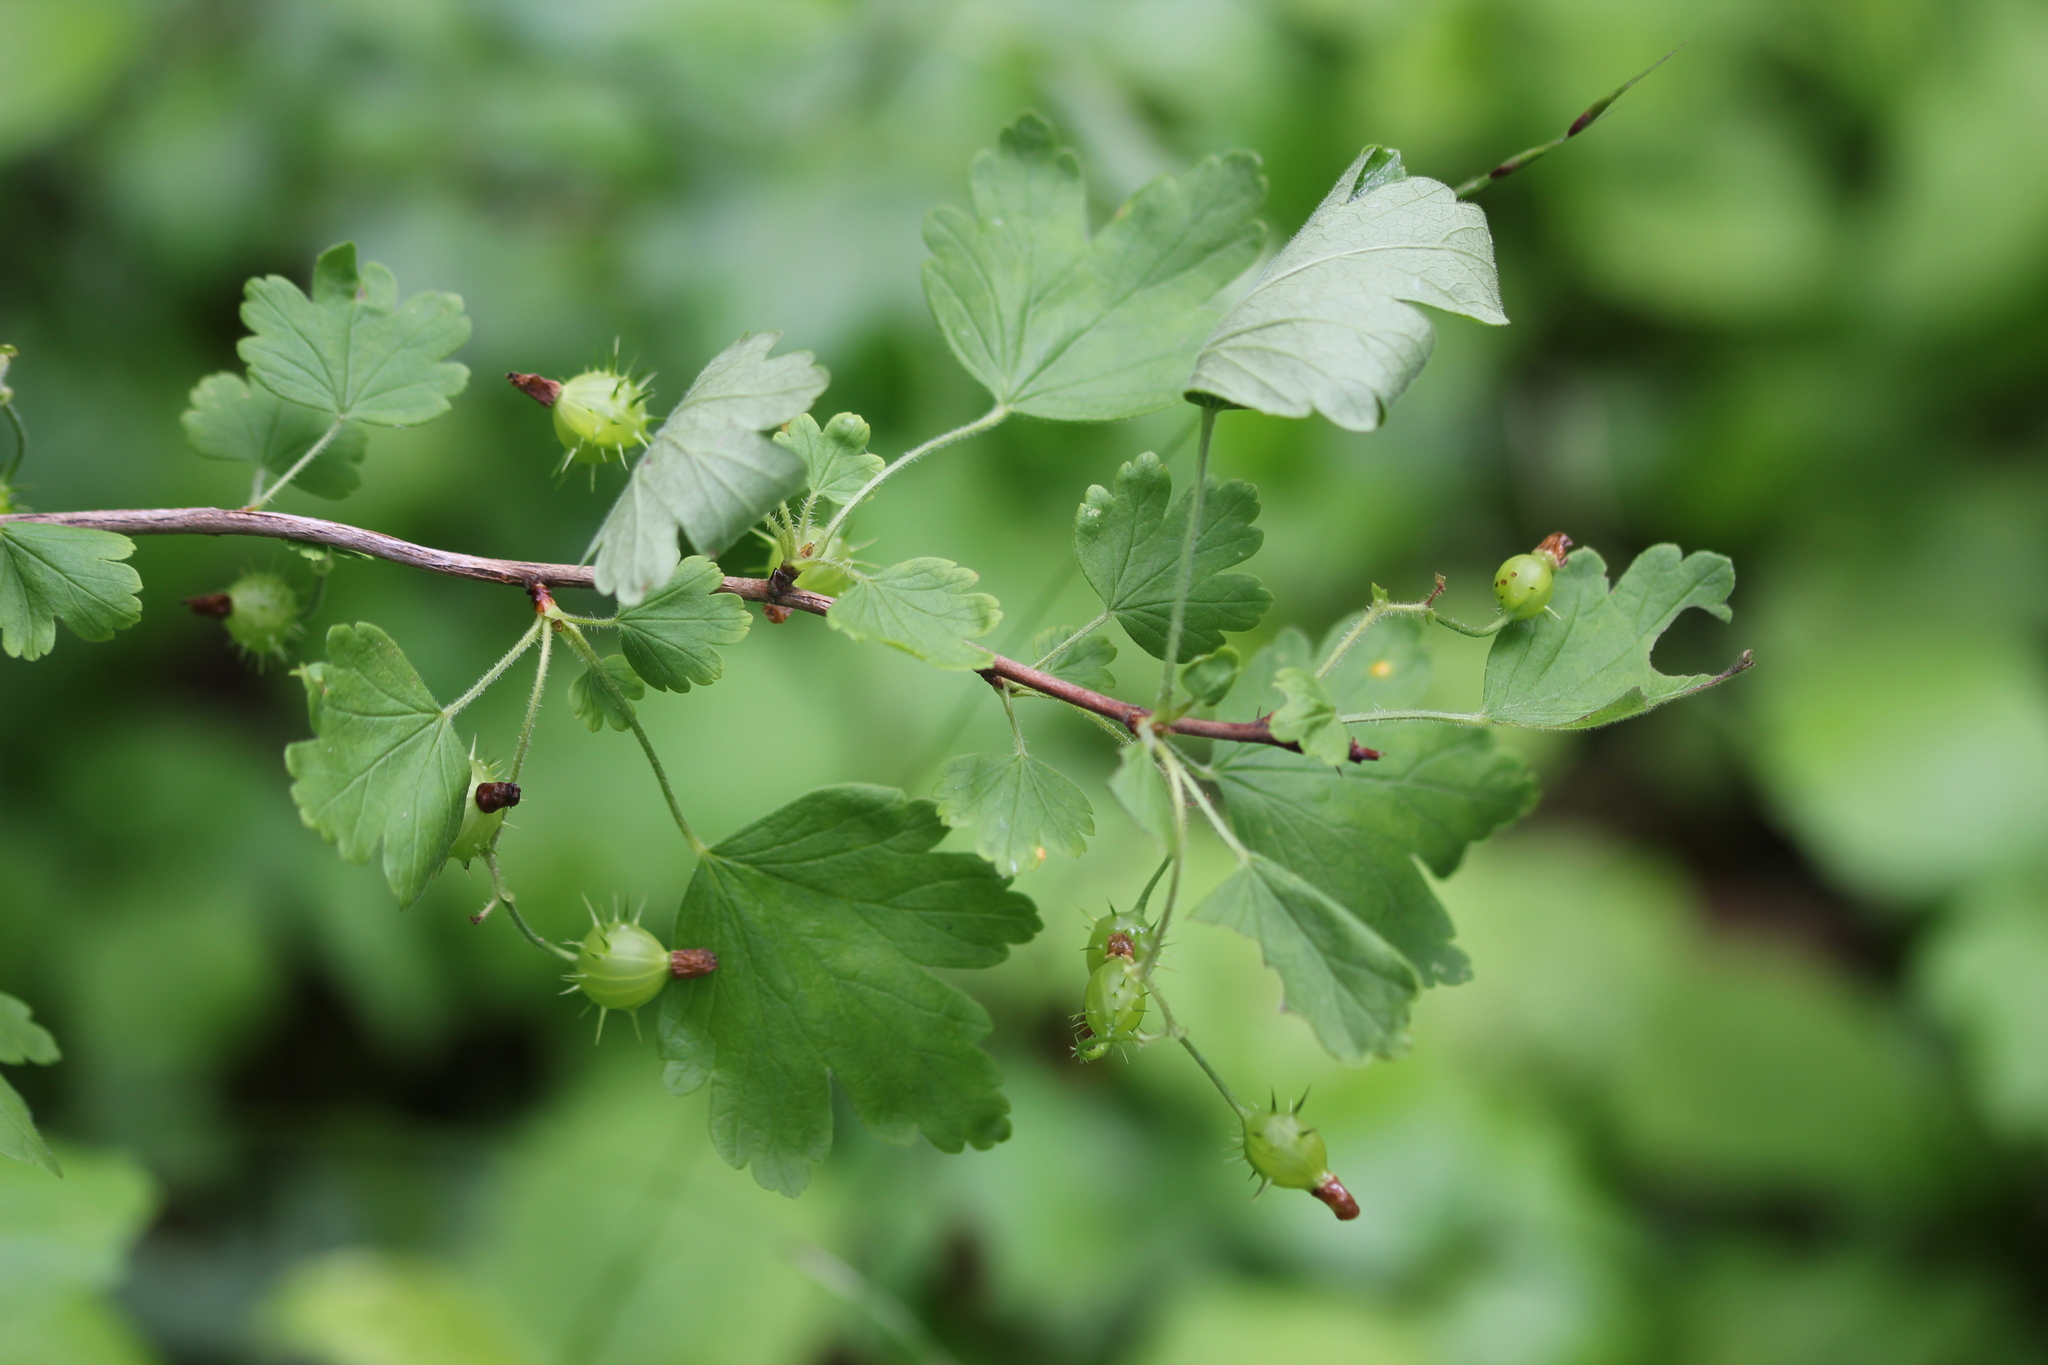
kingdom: Plantae
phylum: Tracheophyta
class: Magnoliopsida
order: Saxifragales
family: Grossulariaceae
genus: Ribes
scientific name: Ribes cynosbati
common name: American gooseberry
